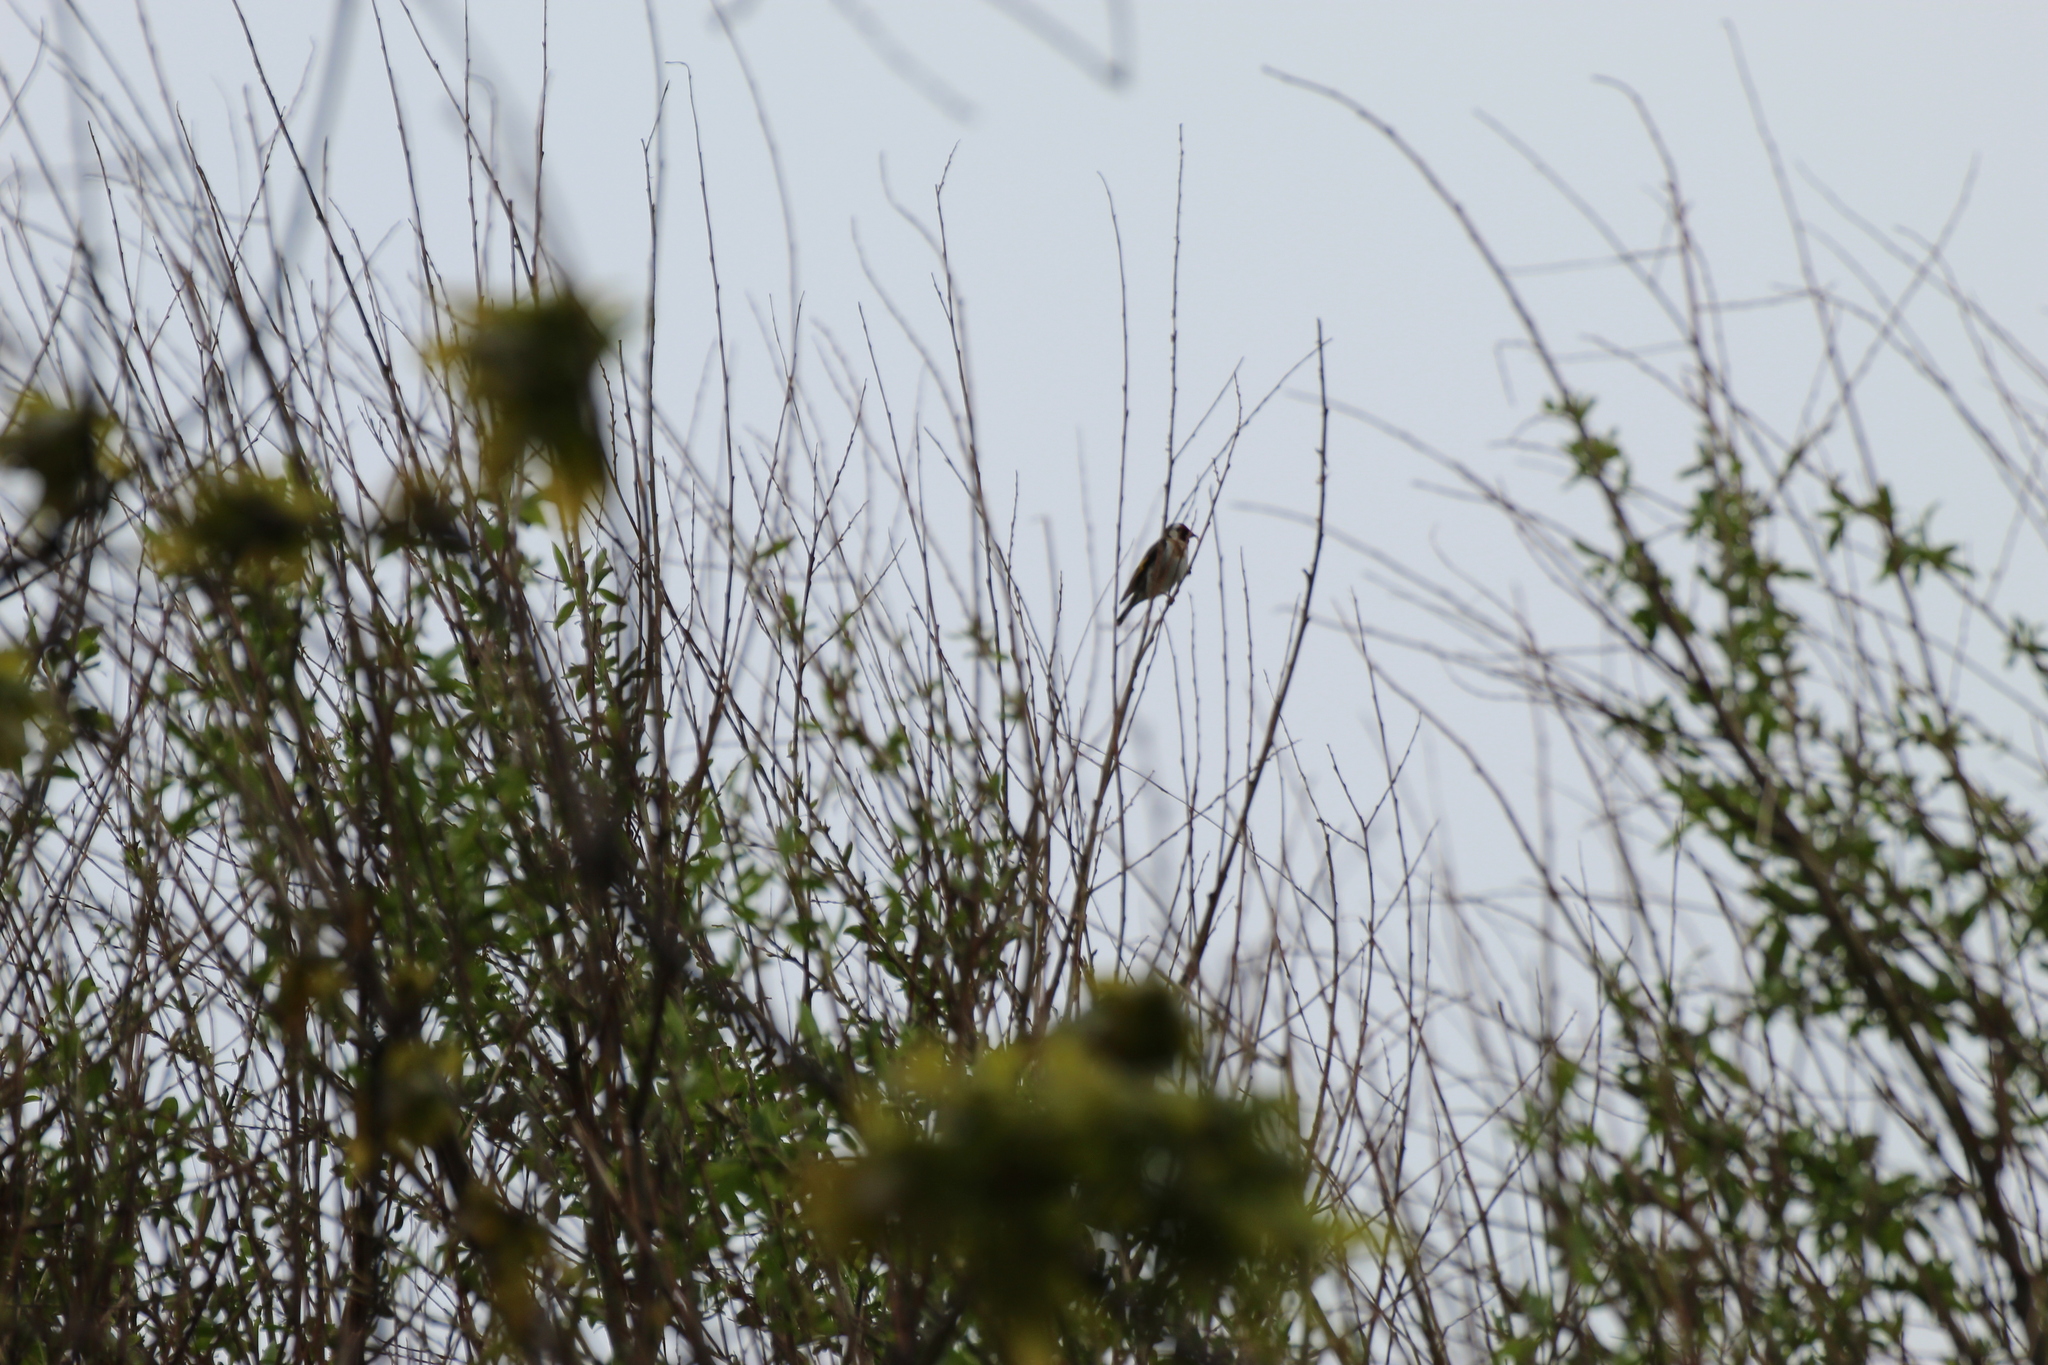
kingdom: Animalia
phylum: Chordata
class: Aves
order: Passeriformes
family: Fringillidae
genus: Carduelis
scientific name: Carduelis carduelis
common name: European goldfinch
